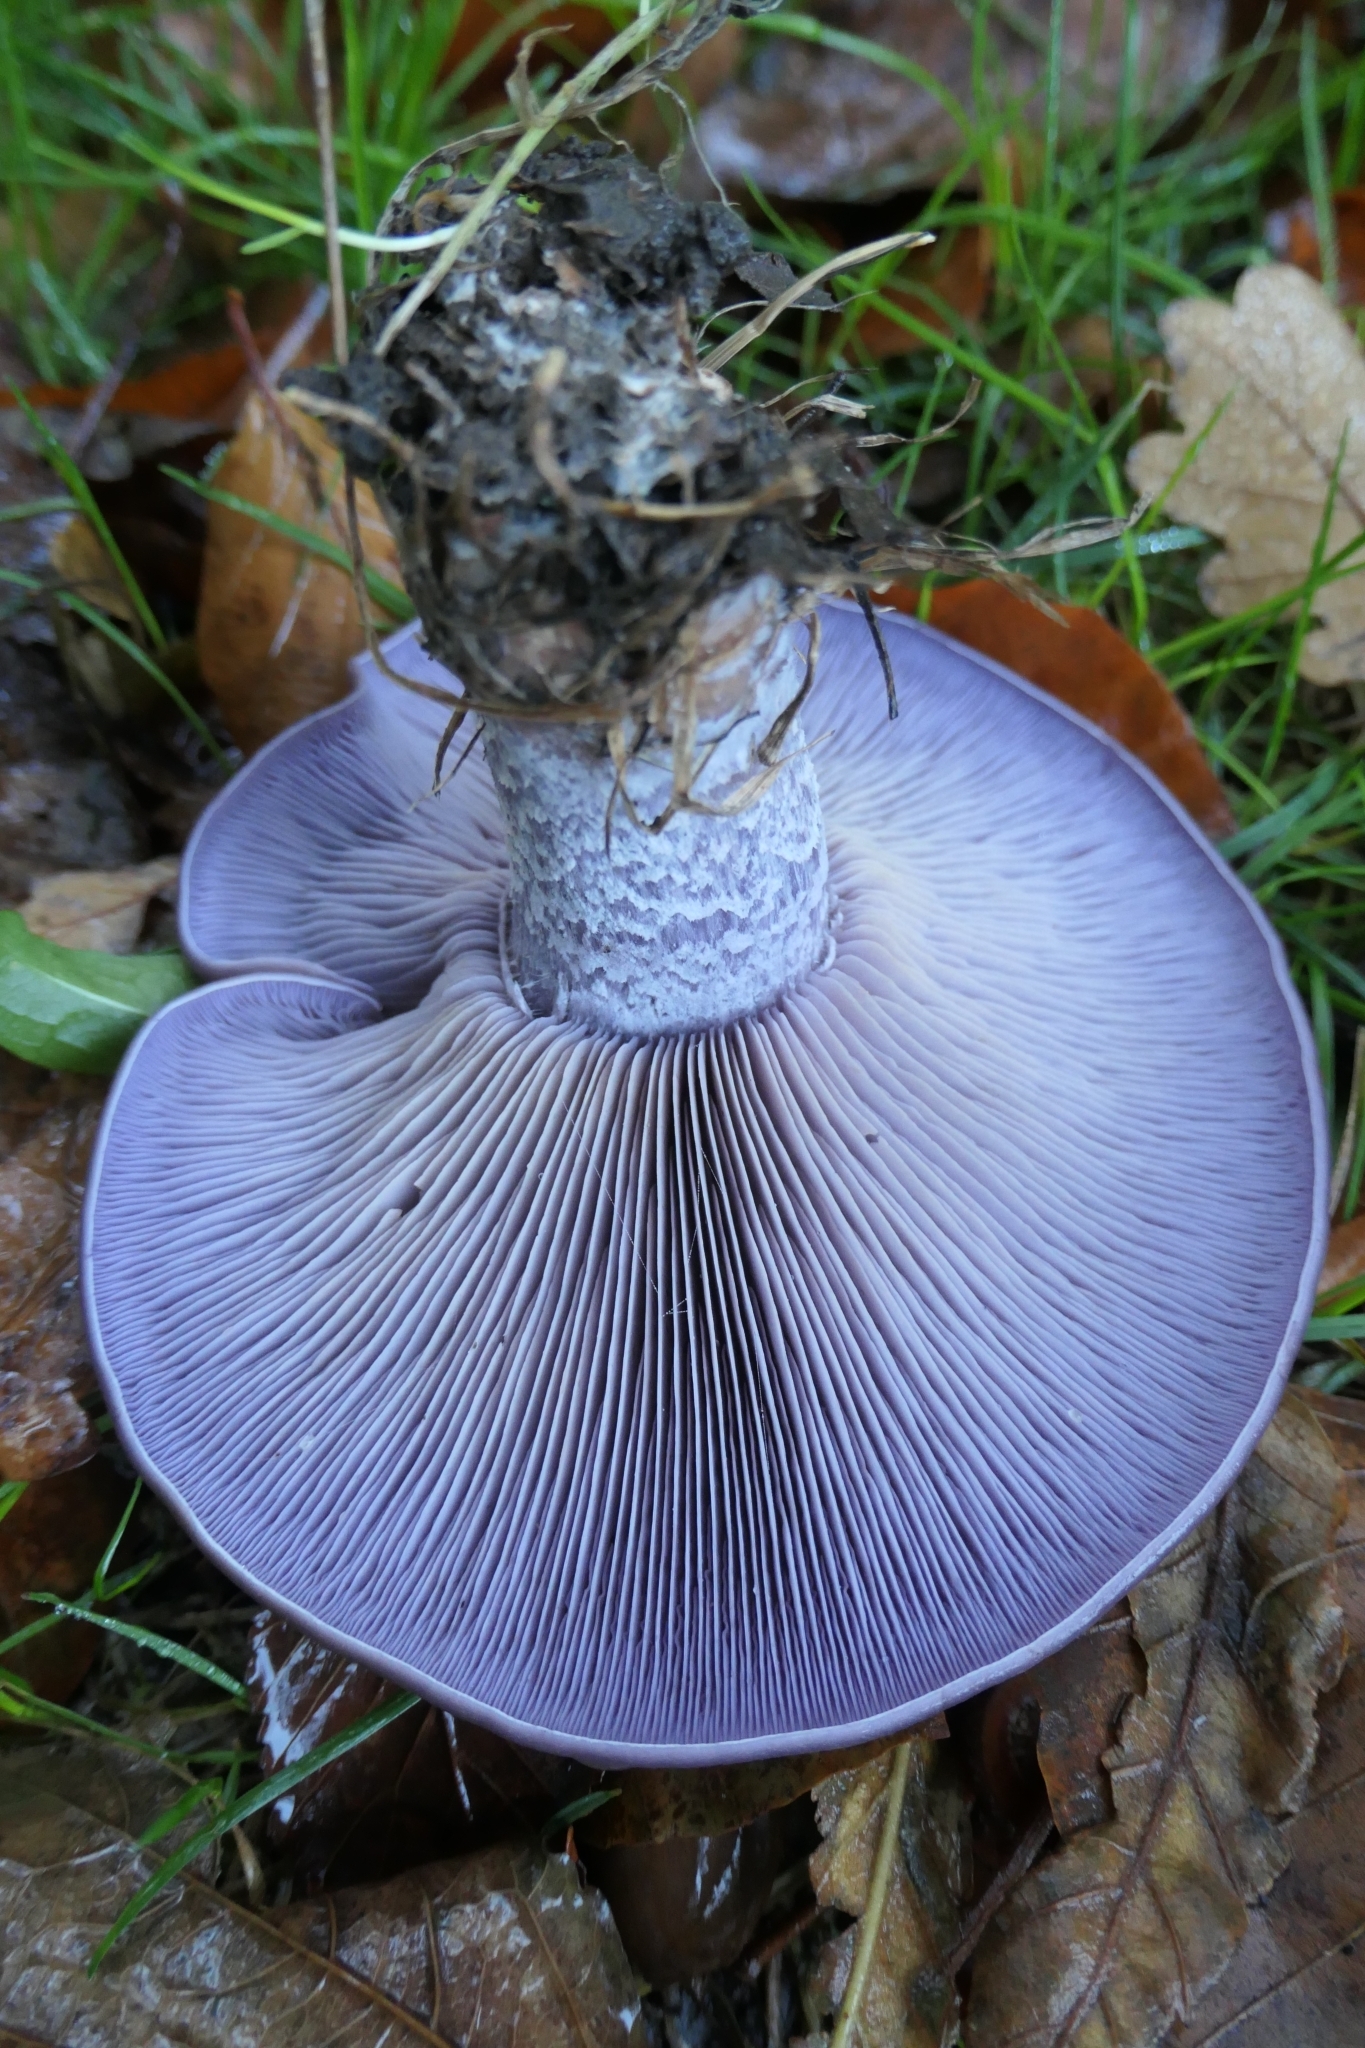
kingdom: Fungi
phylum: Basidiomycota
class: Agaricomycetes
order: Agaricales
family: Tricholomataceae
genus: Collybia
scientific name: Collybia
